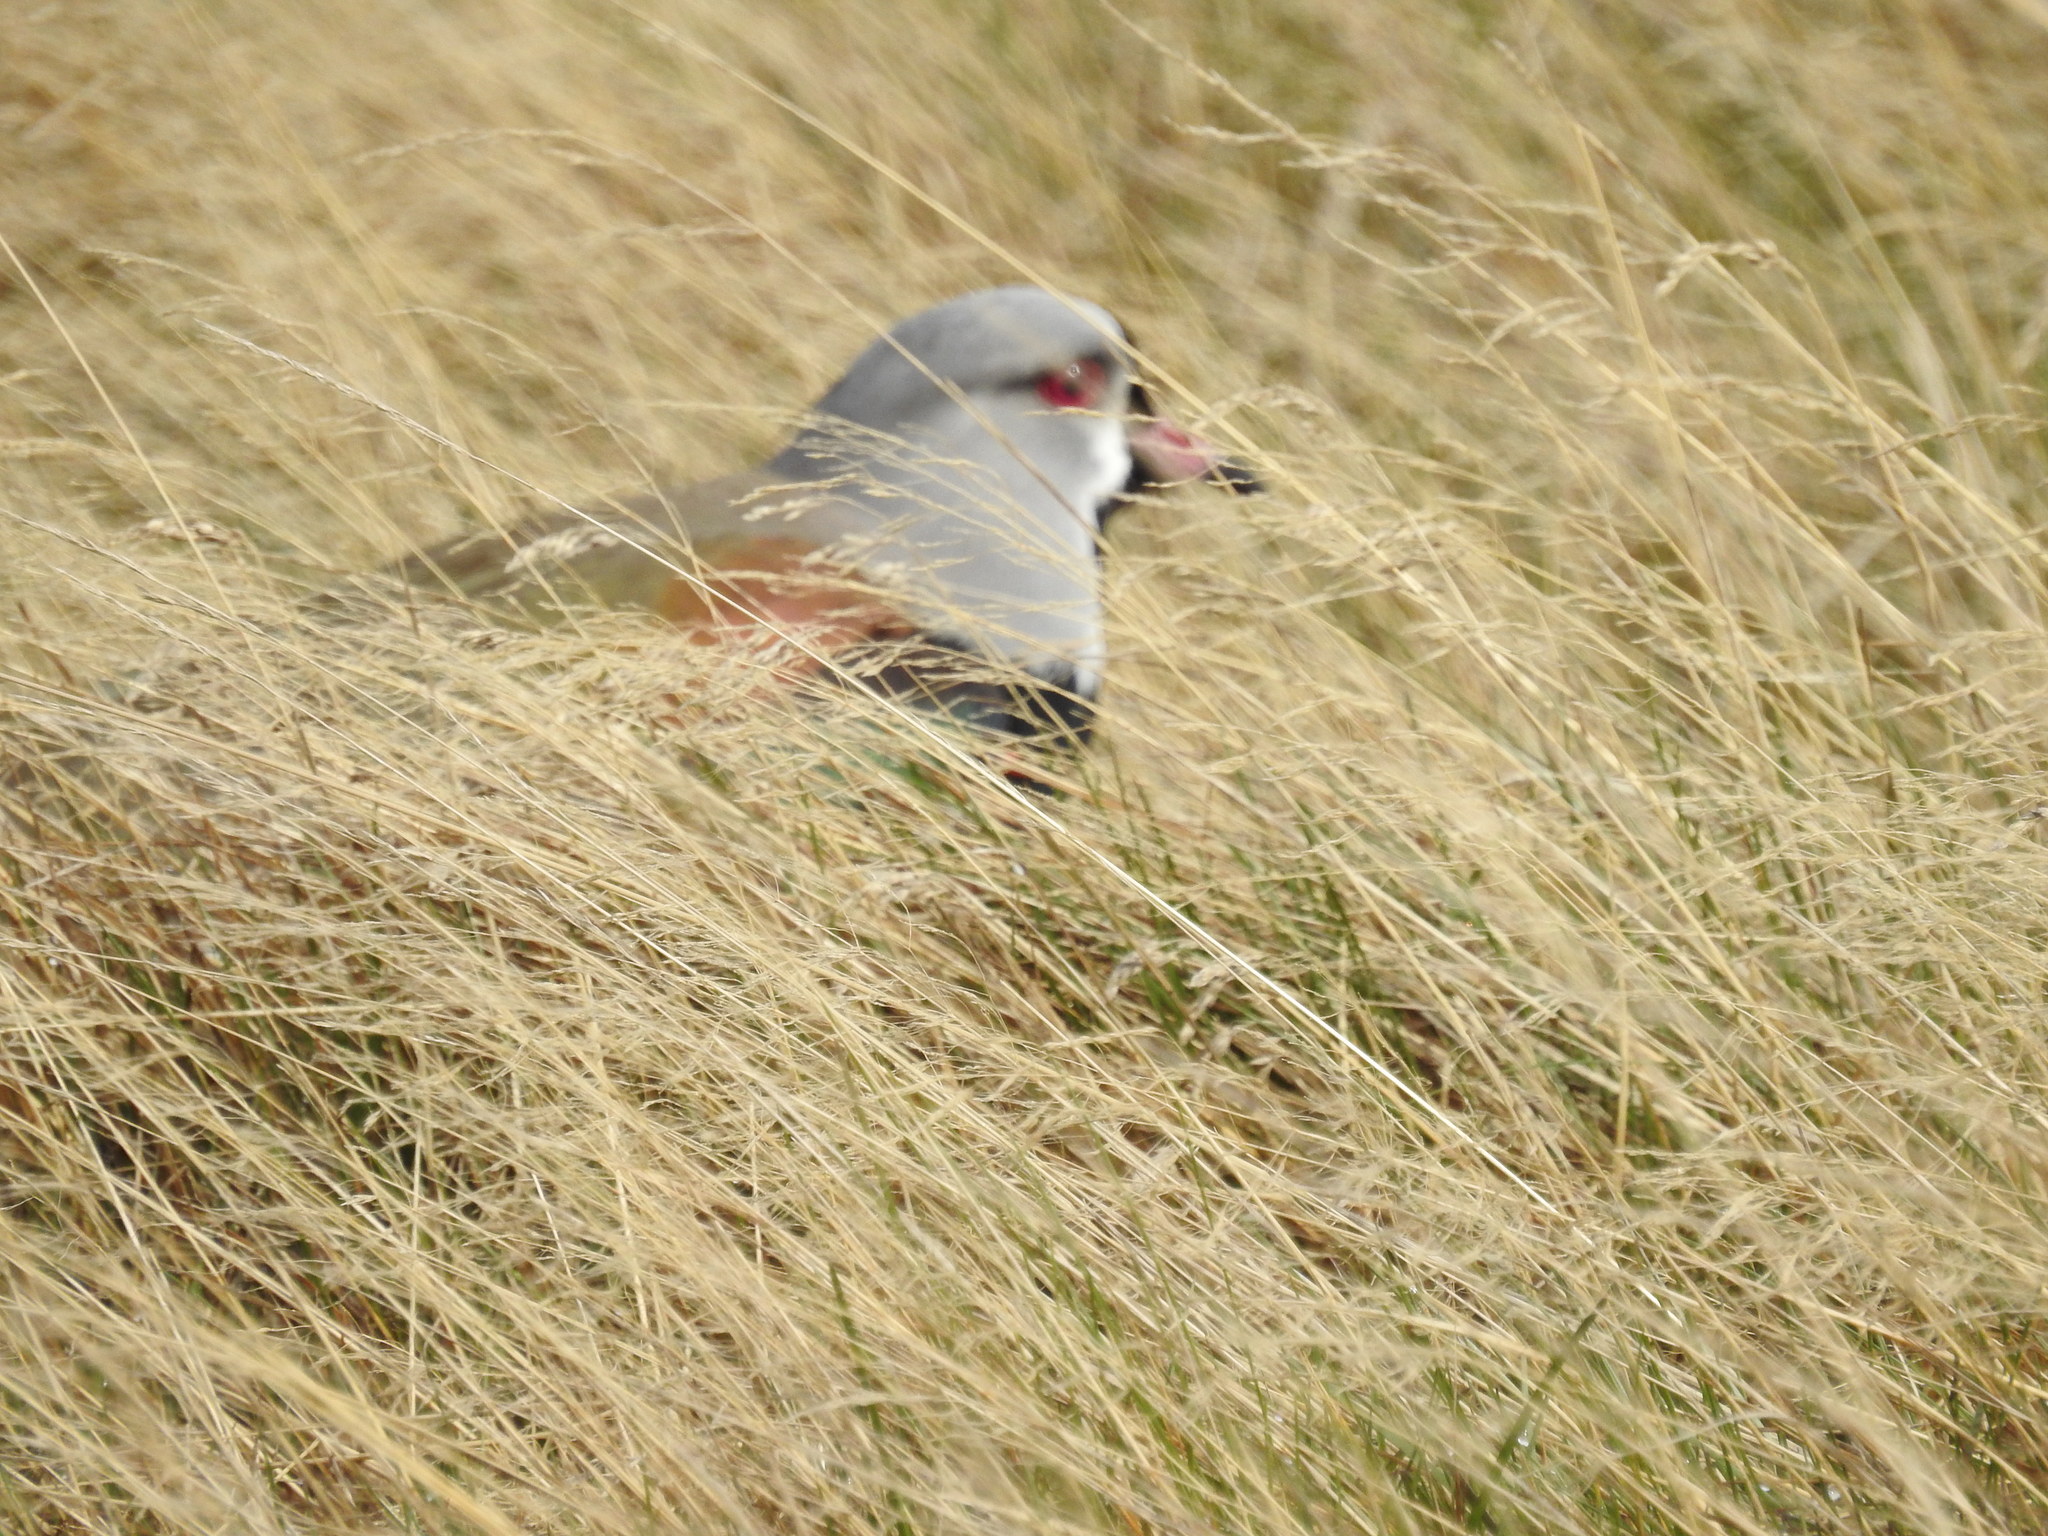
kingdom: Animalia
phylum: Chordata
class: Aves
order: Charadriiformes
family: Charadriidae
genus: Vanellus
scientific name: Vanellus chilensis
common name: Southern lapwing
